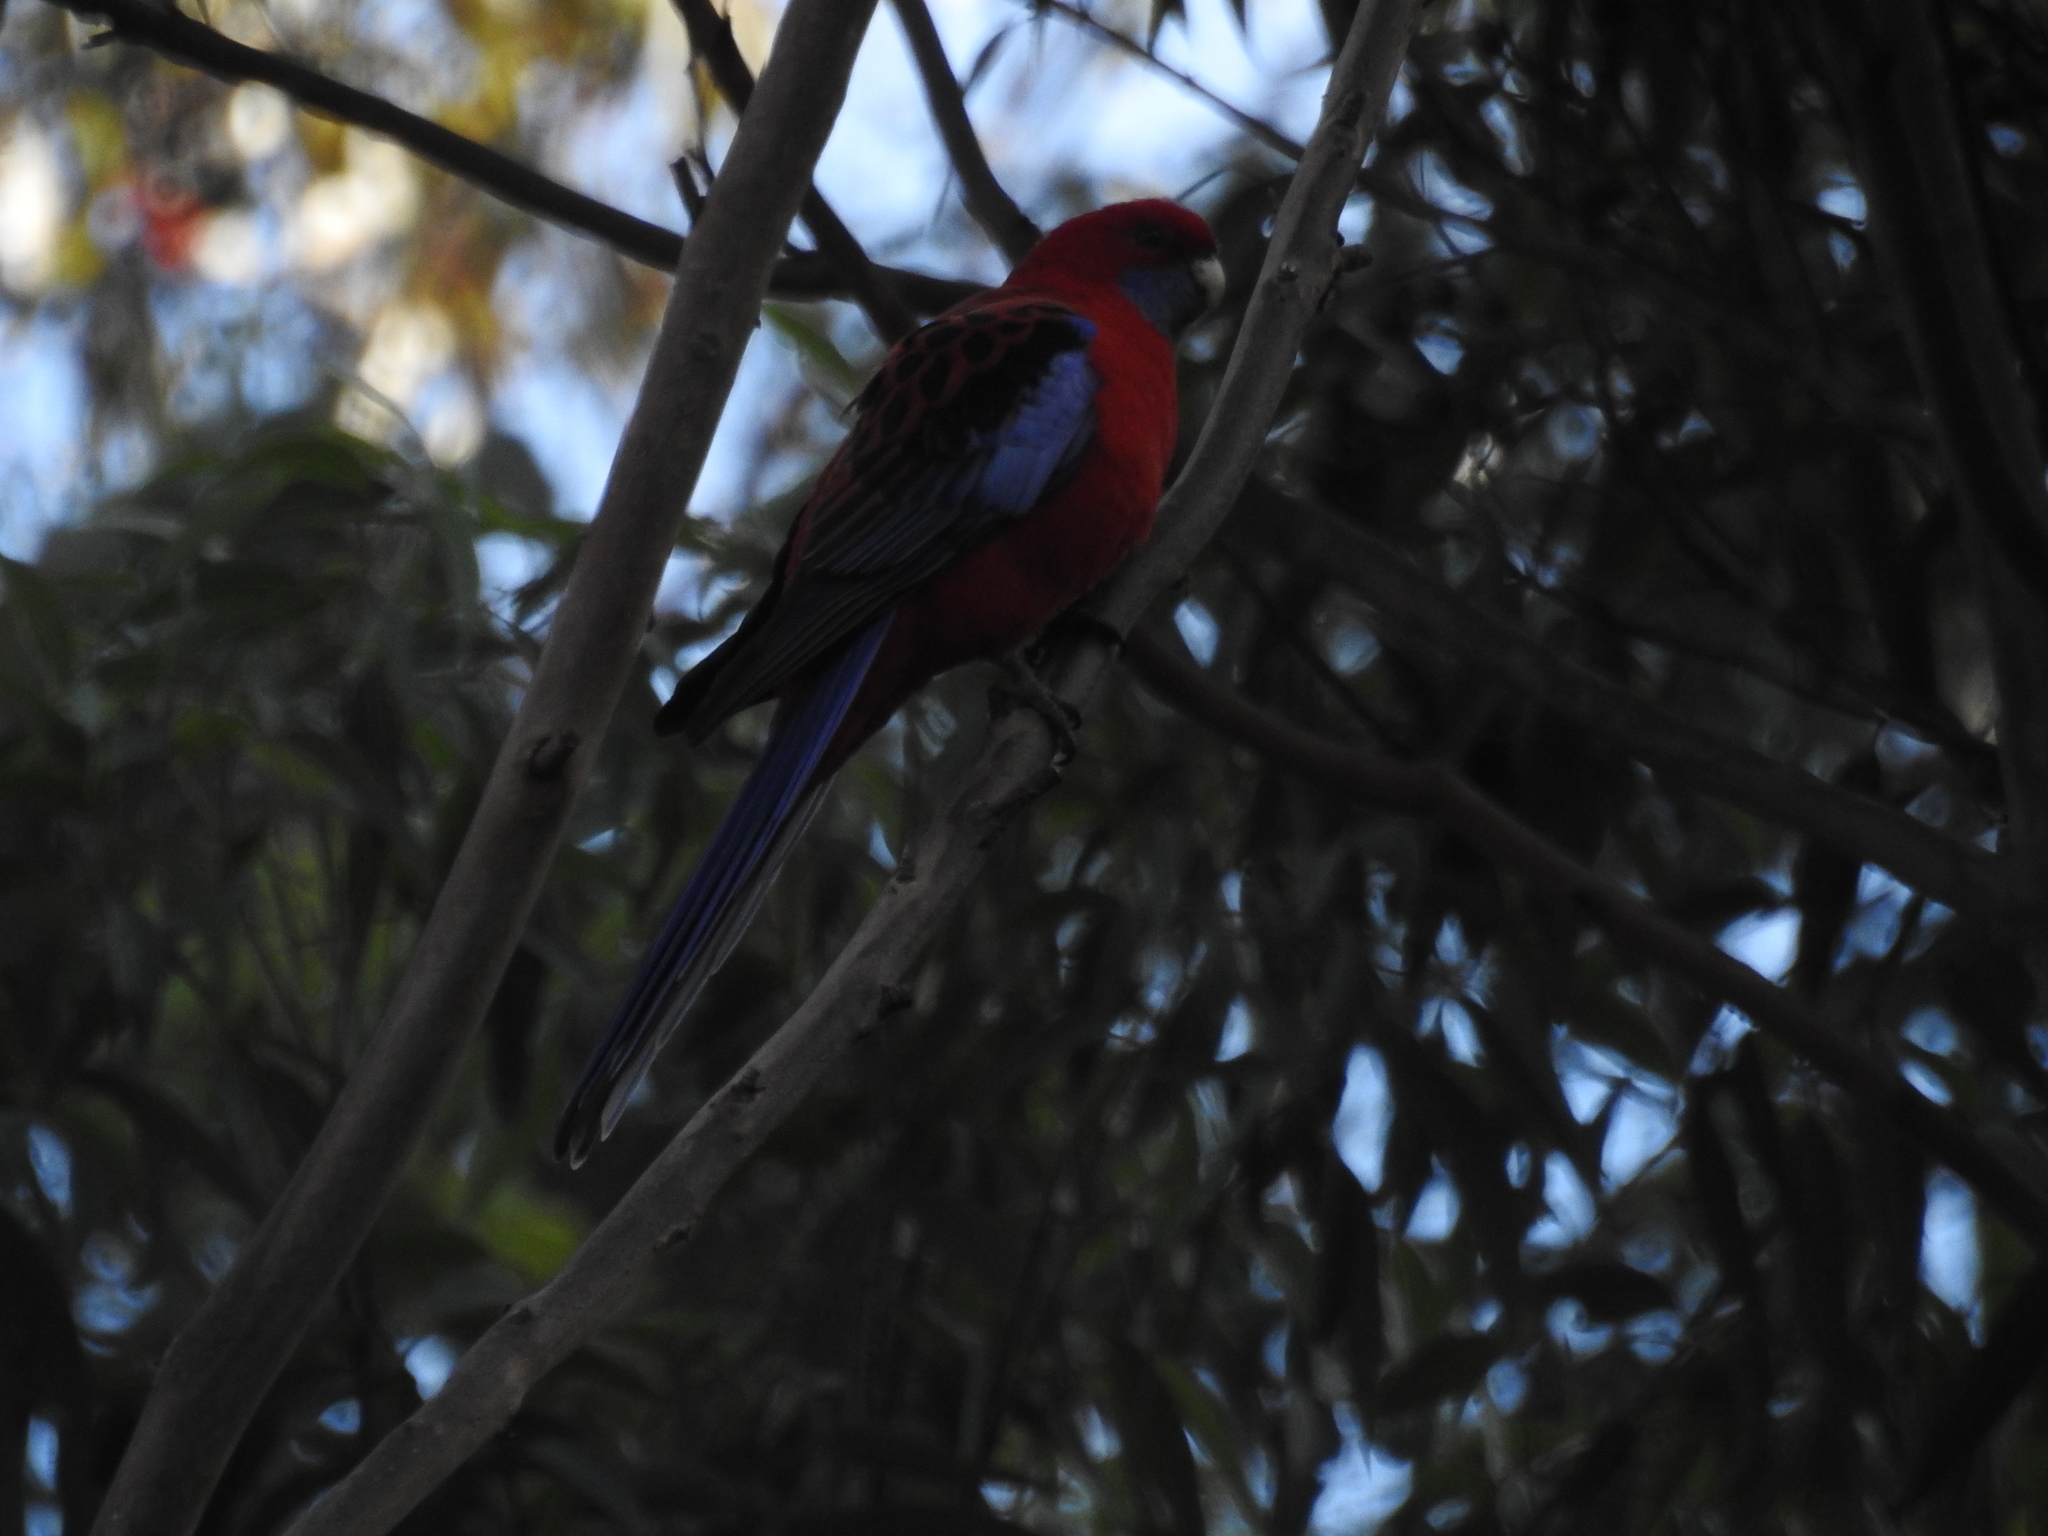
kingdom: Animalia
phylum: Chordata
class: Aves
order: Psittaciformes
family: Psittacidae
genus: Platycercus
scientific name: Platycercus elegans
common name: Crimson rosella
